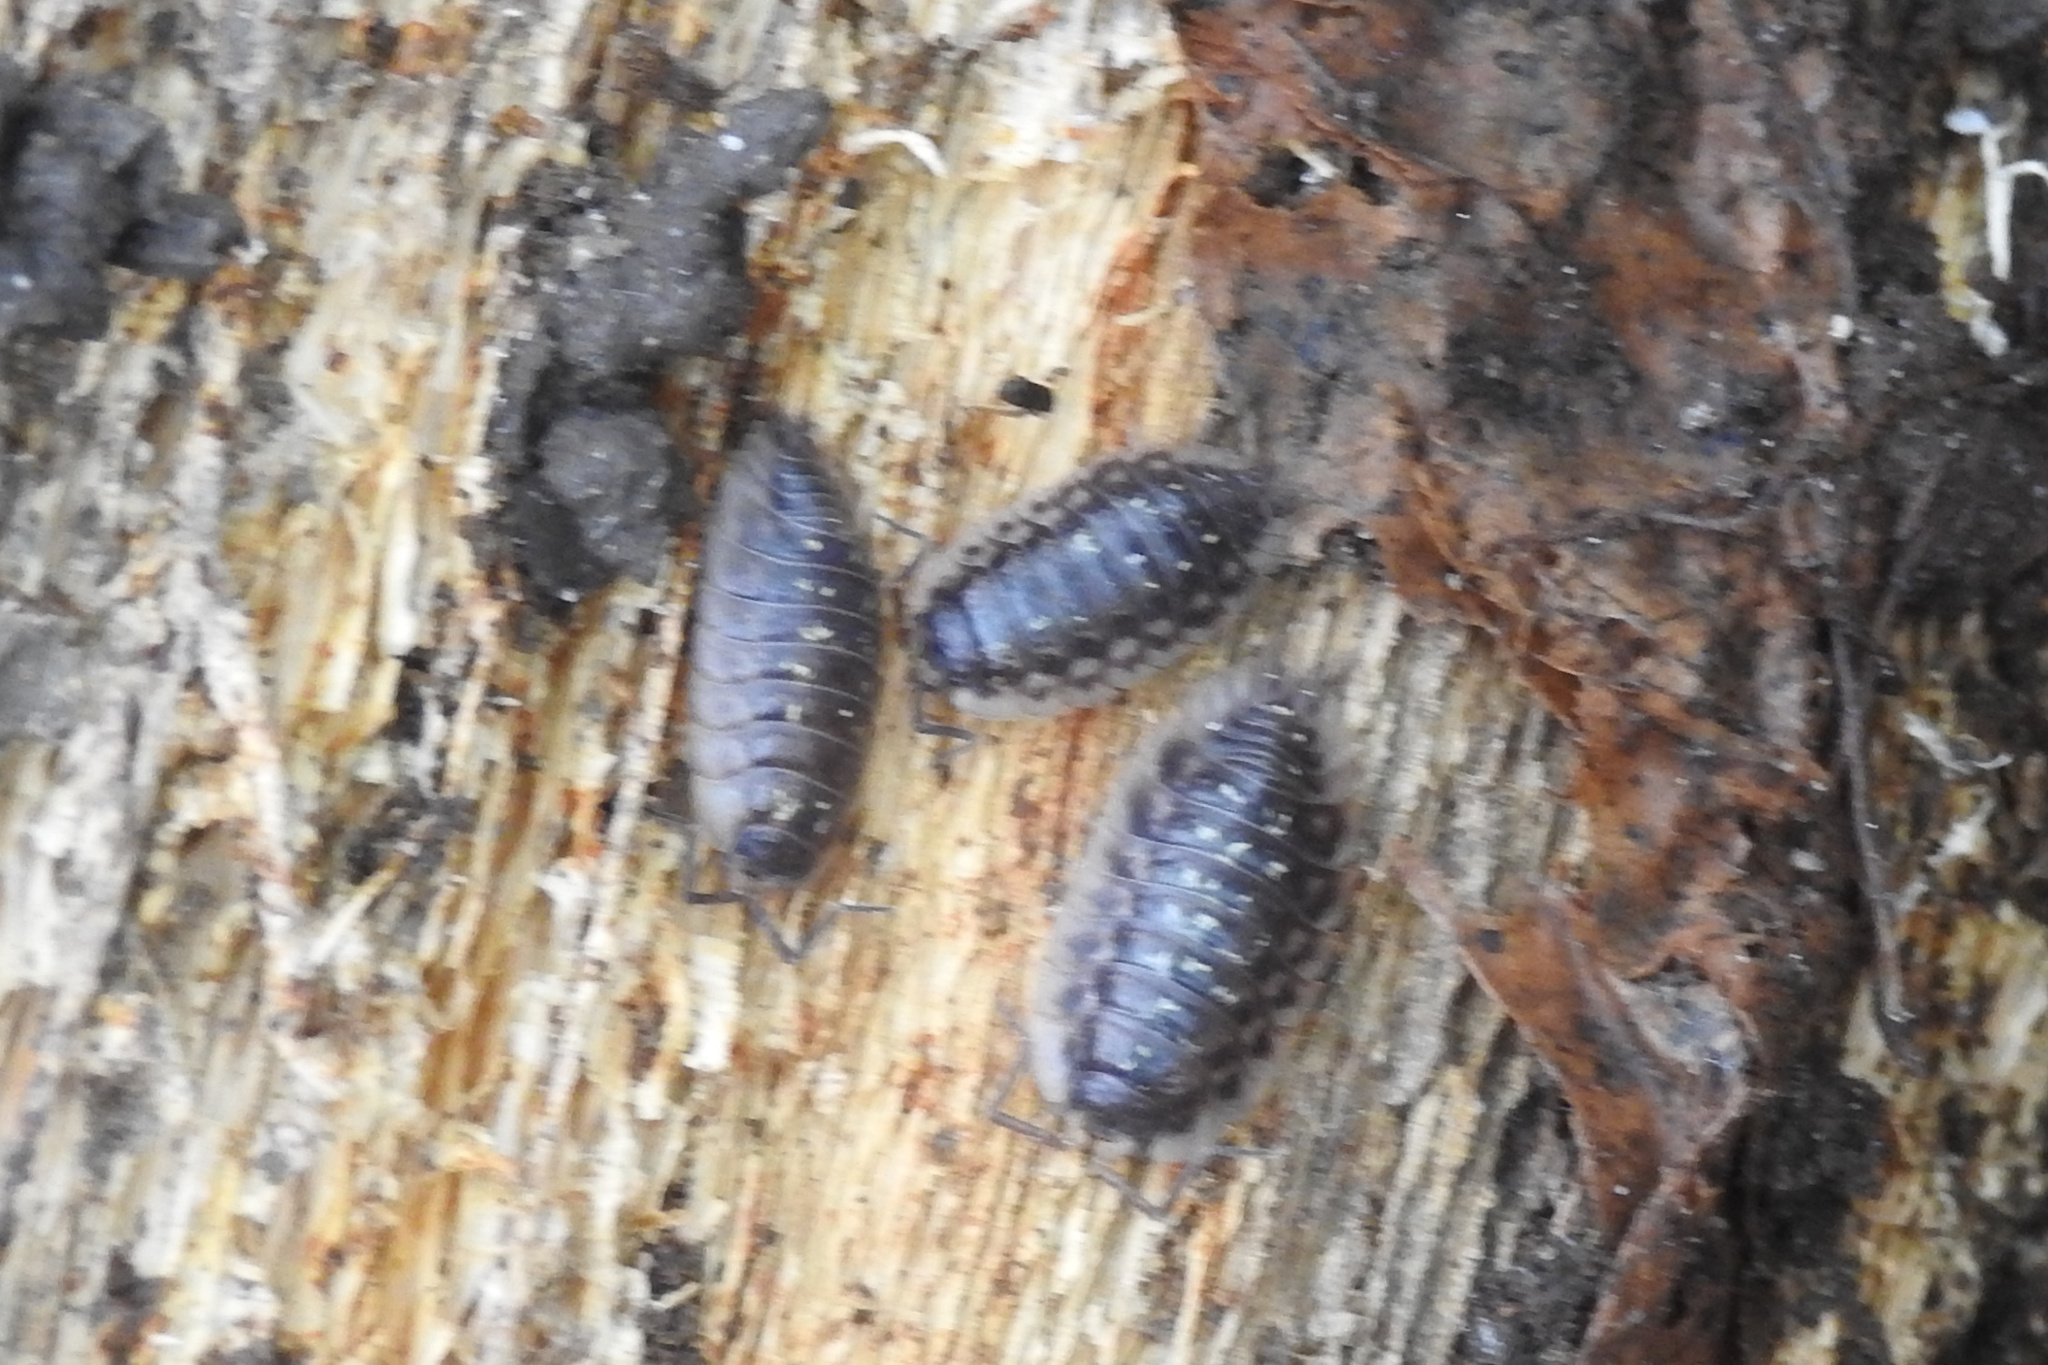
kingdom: Animalia
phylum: Arthropoda
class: Malacostraca
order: Isopoda
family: Oniscidae
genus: Oniscus
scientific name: Oniscus asellus
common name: Common shiny woodlouse
